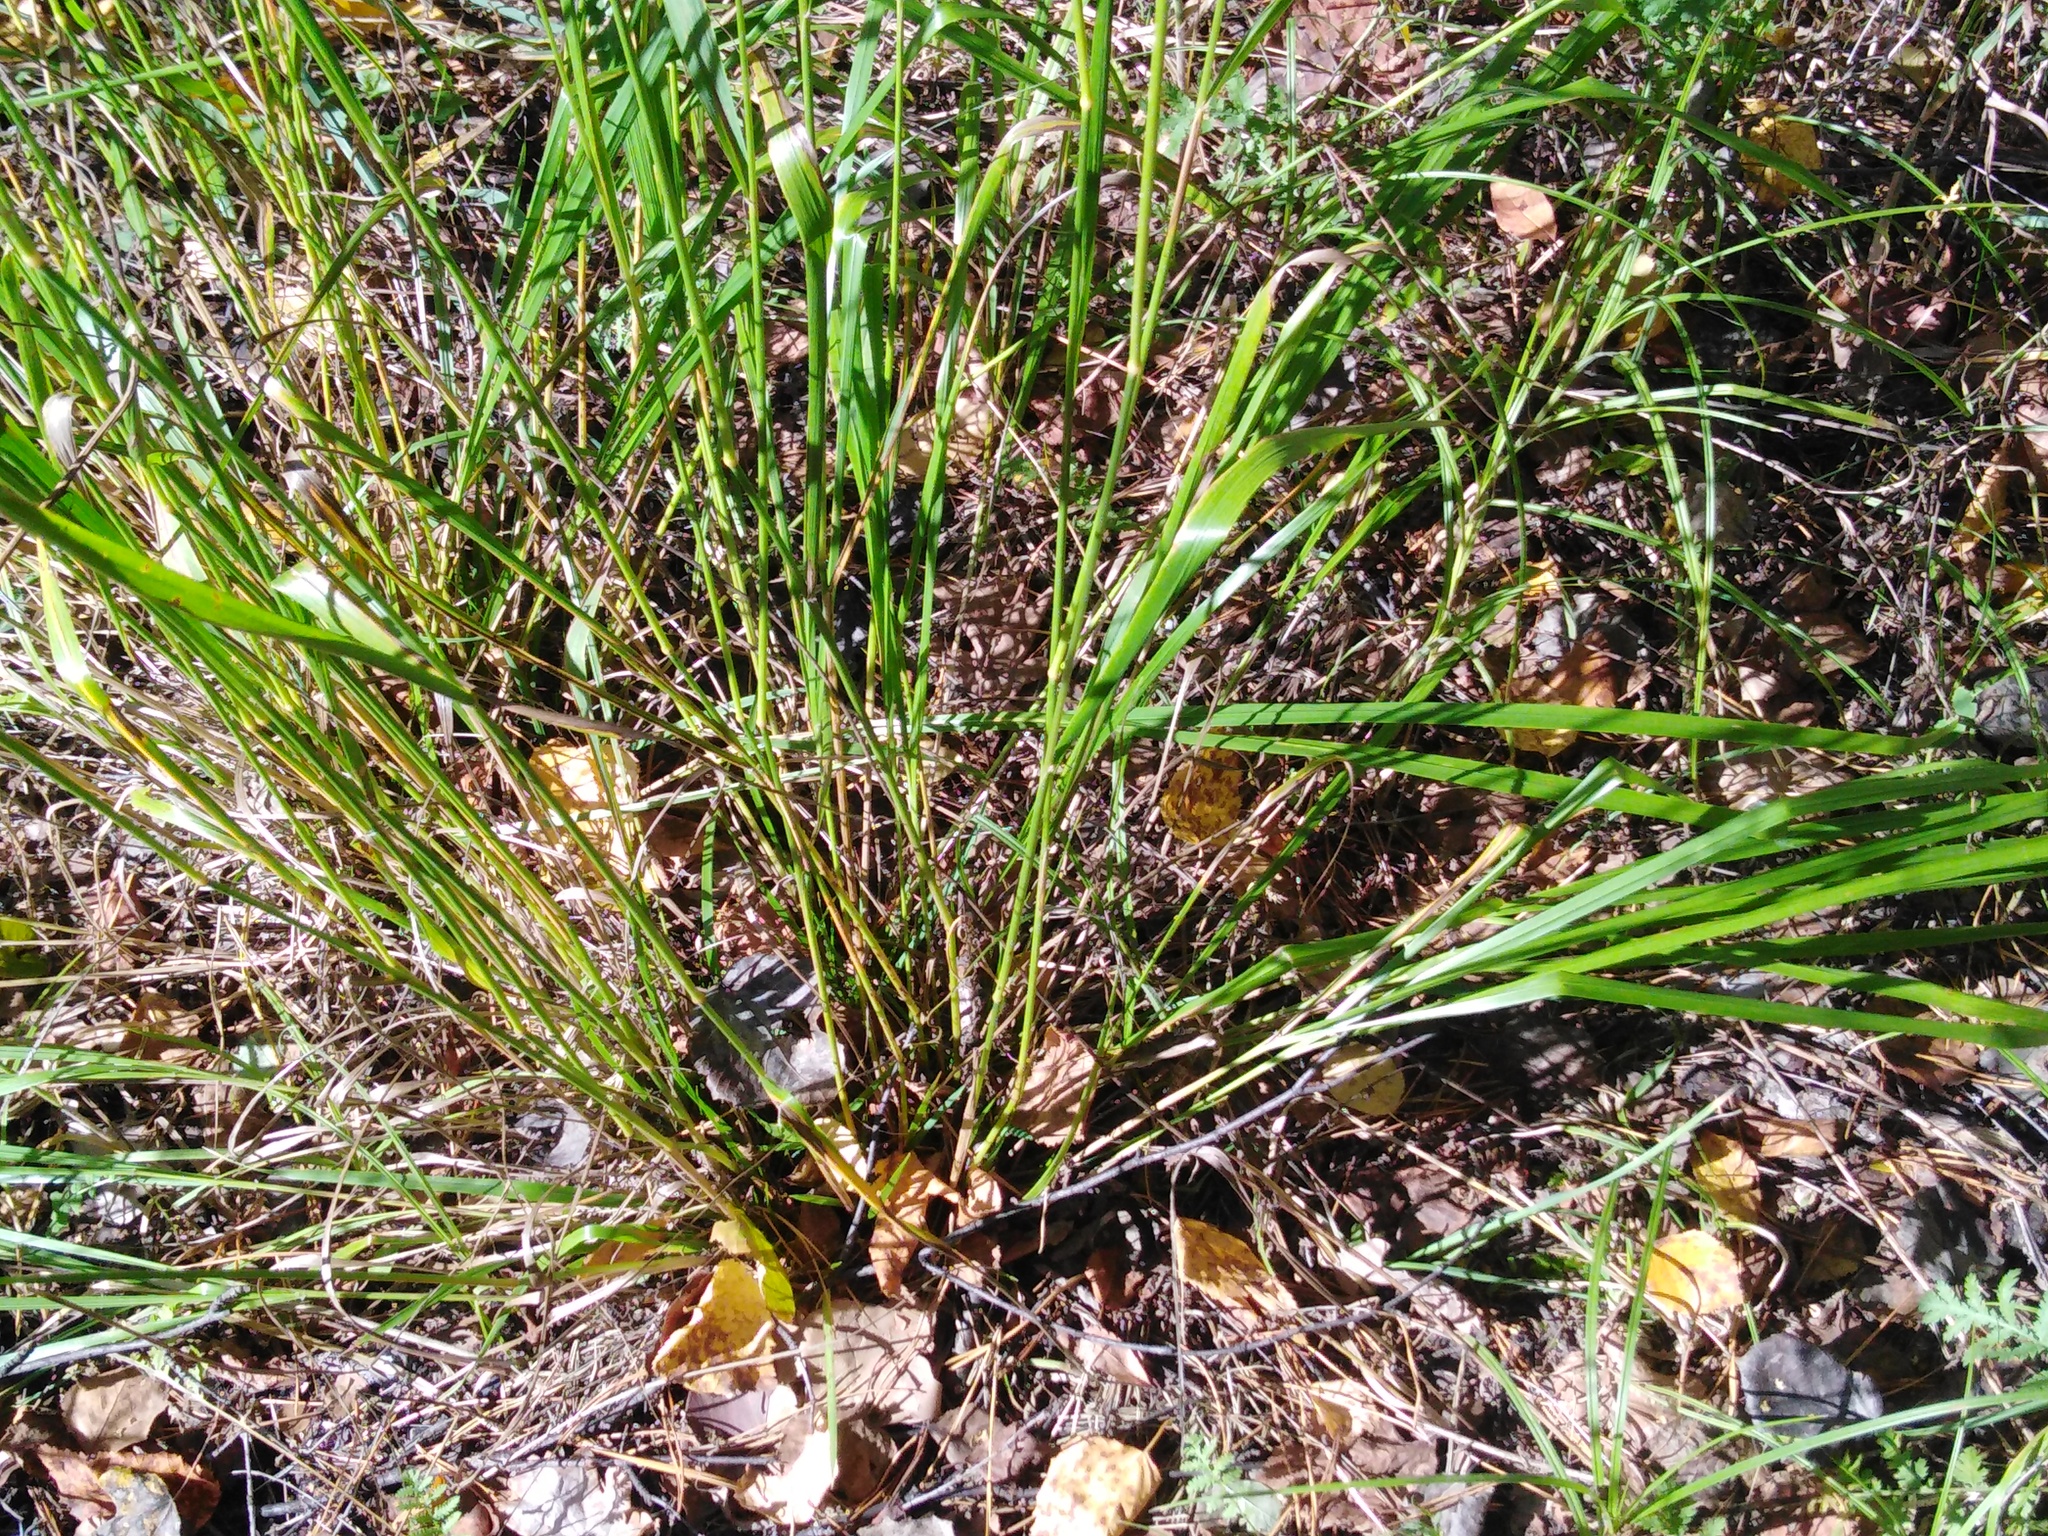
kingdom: Plantae
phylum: Tracheophyta
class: Liliopsida
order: Poales
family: Poaceae
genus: Calamagrostis
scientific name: Calamagrostis arundinacea
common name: Metskastik
